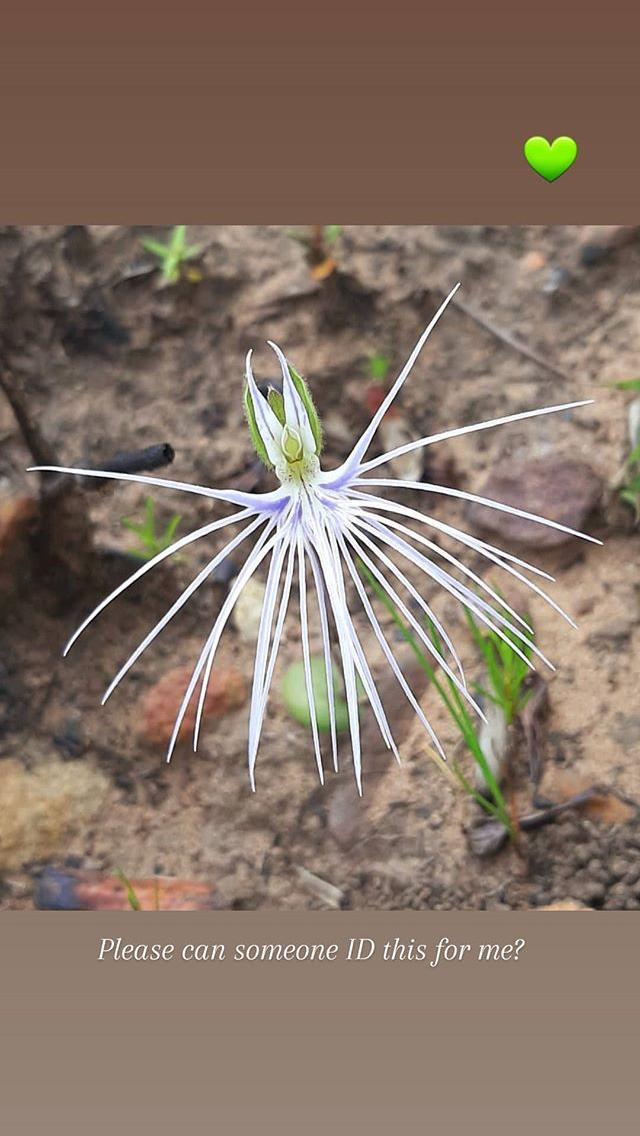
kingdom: Plantae
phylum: Tracheophyta
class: Liliopsida
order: Asparagales
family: Orchidaceae
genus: Holothrix
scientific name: Holothrix burmanniana
